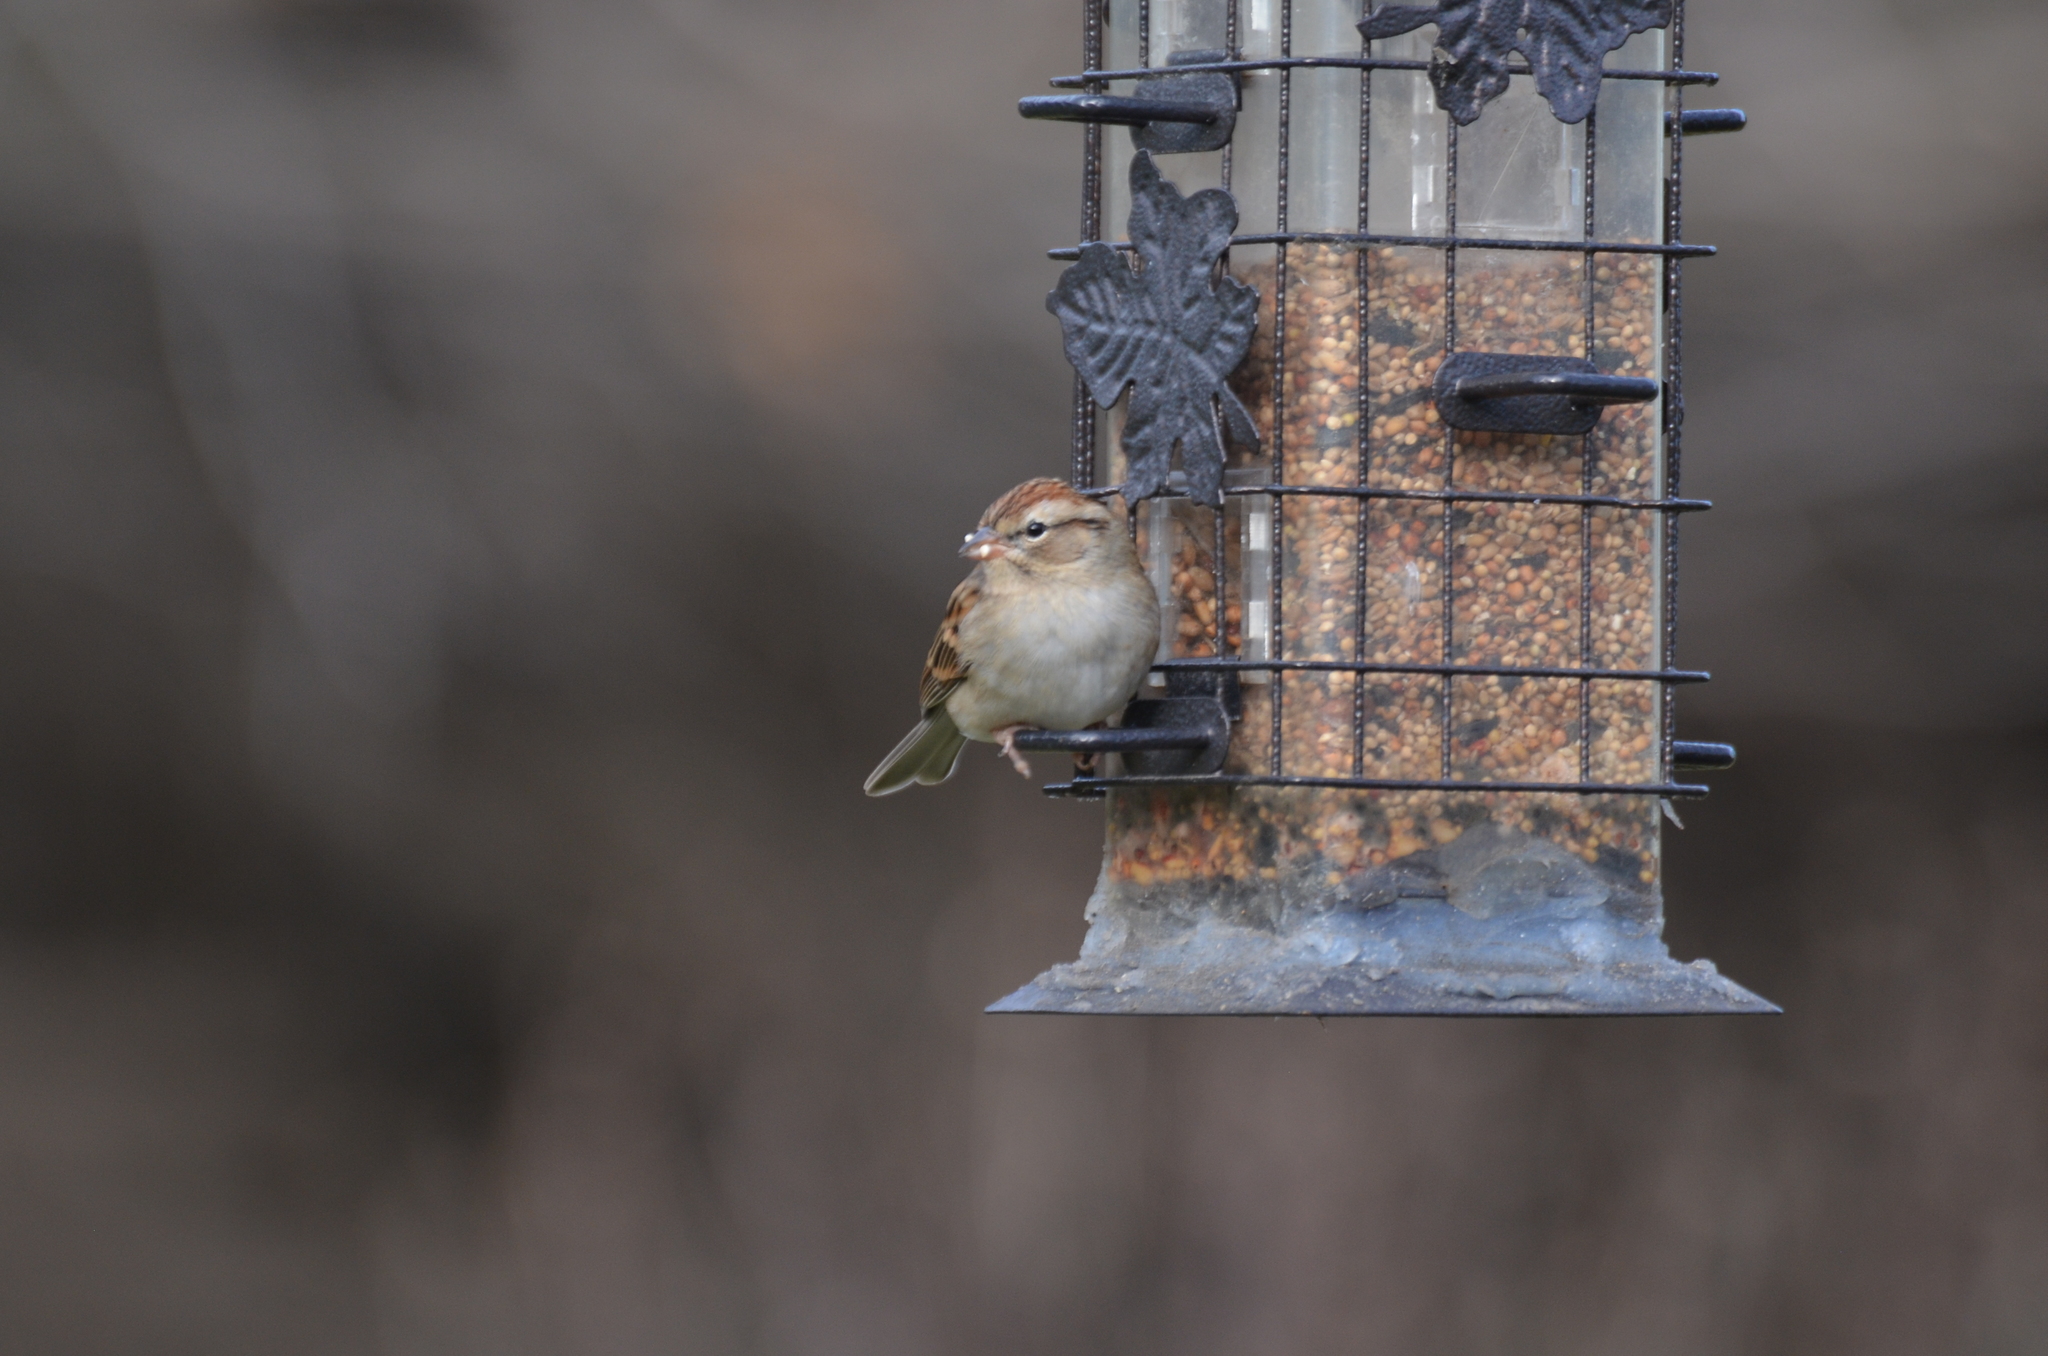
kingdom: Animalia
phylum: Chordata
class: Aves
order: Passeriformes
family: Passerellidae
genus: Spizella
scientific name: Spizella passerina
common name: Chipping sparrow
